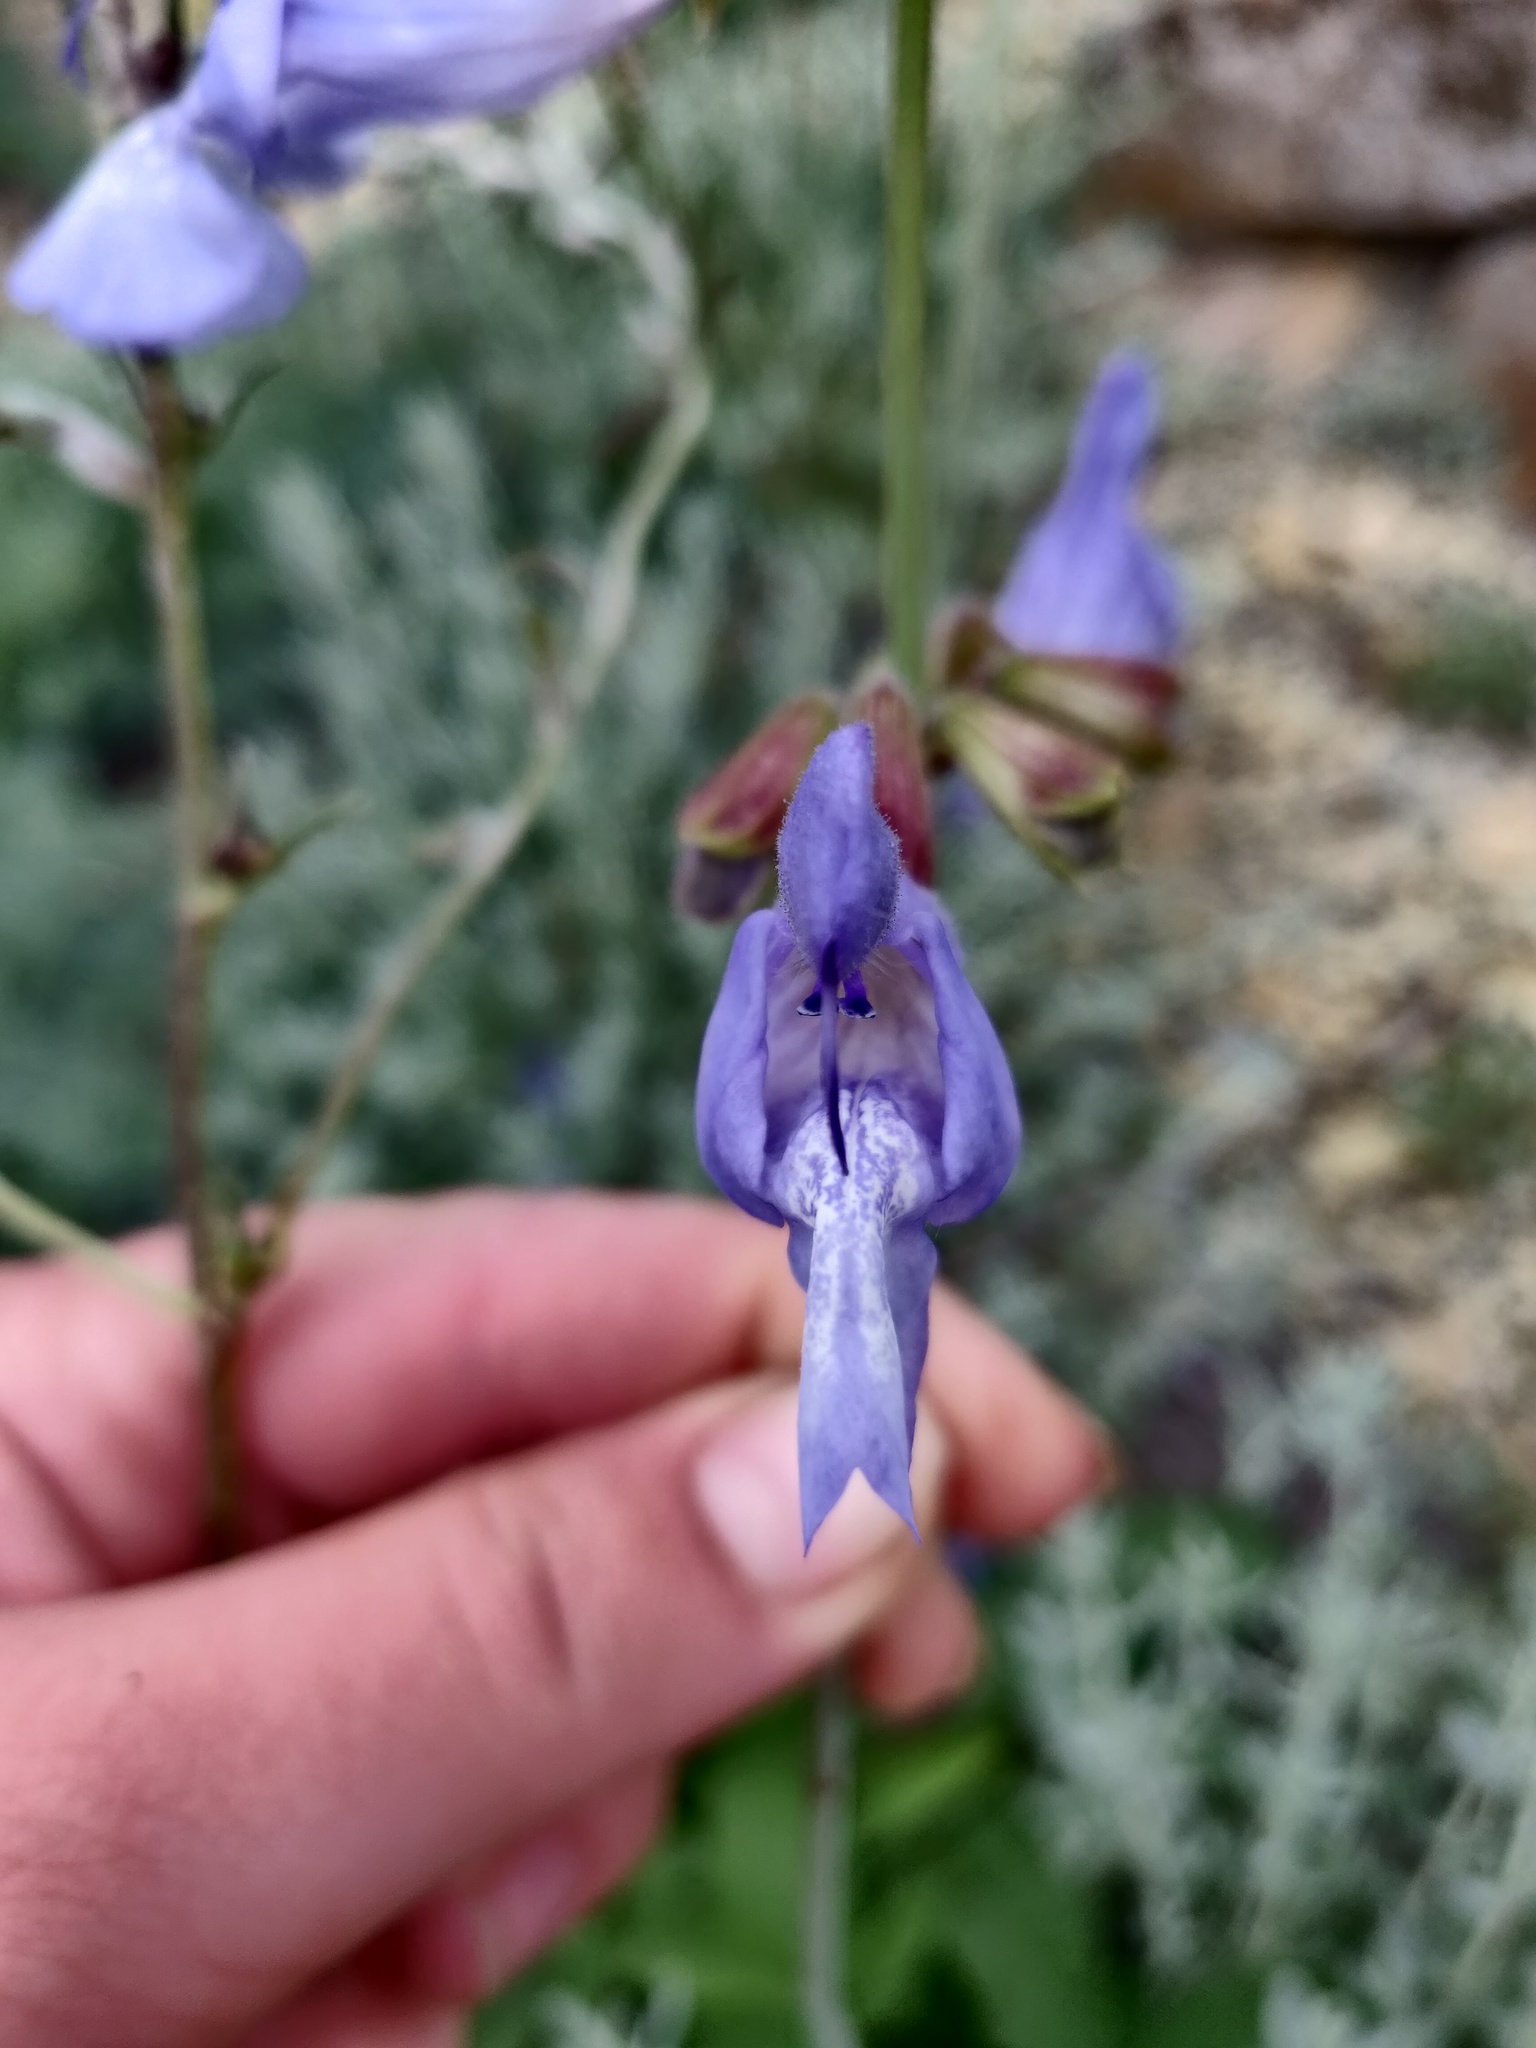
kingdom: Plantae
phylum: Tracheophyta
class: Magnoliopsida
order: Lamiales
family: Lamiaceae
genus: Salvia
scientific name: Salvia ringens
